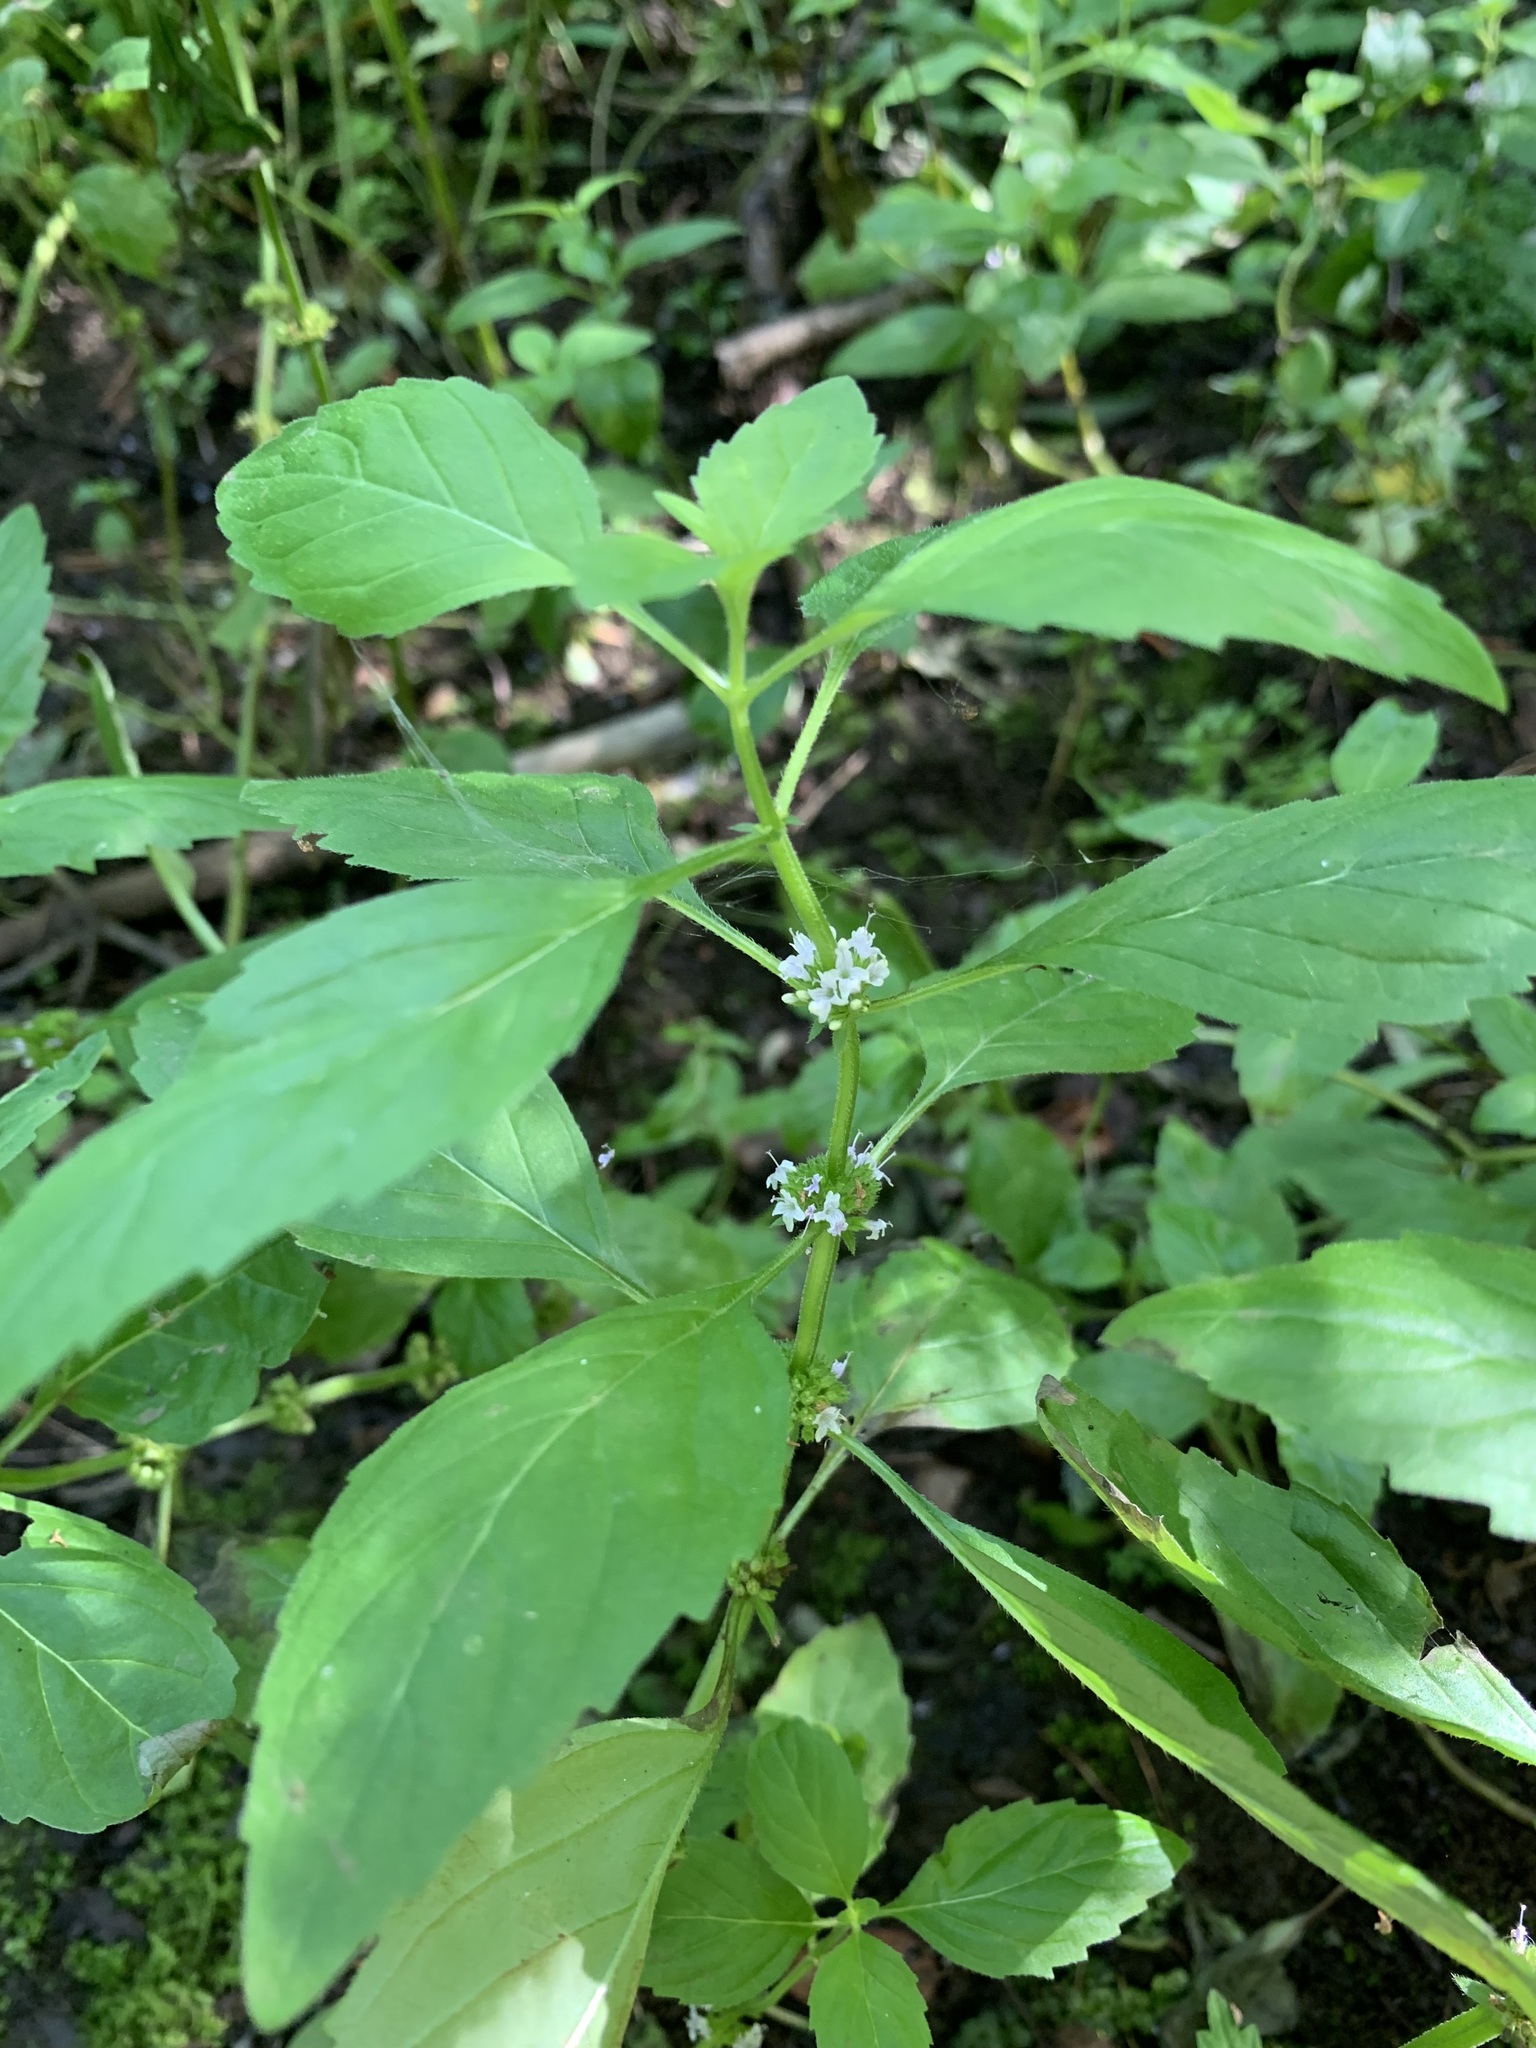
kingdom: Plantae
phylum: Tracheophyta
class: Magnoliopsida
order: Lamiales
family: Lamiaceae
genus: Mentha
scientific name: Mentha arvensis
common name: Corn mint
